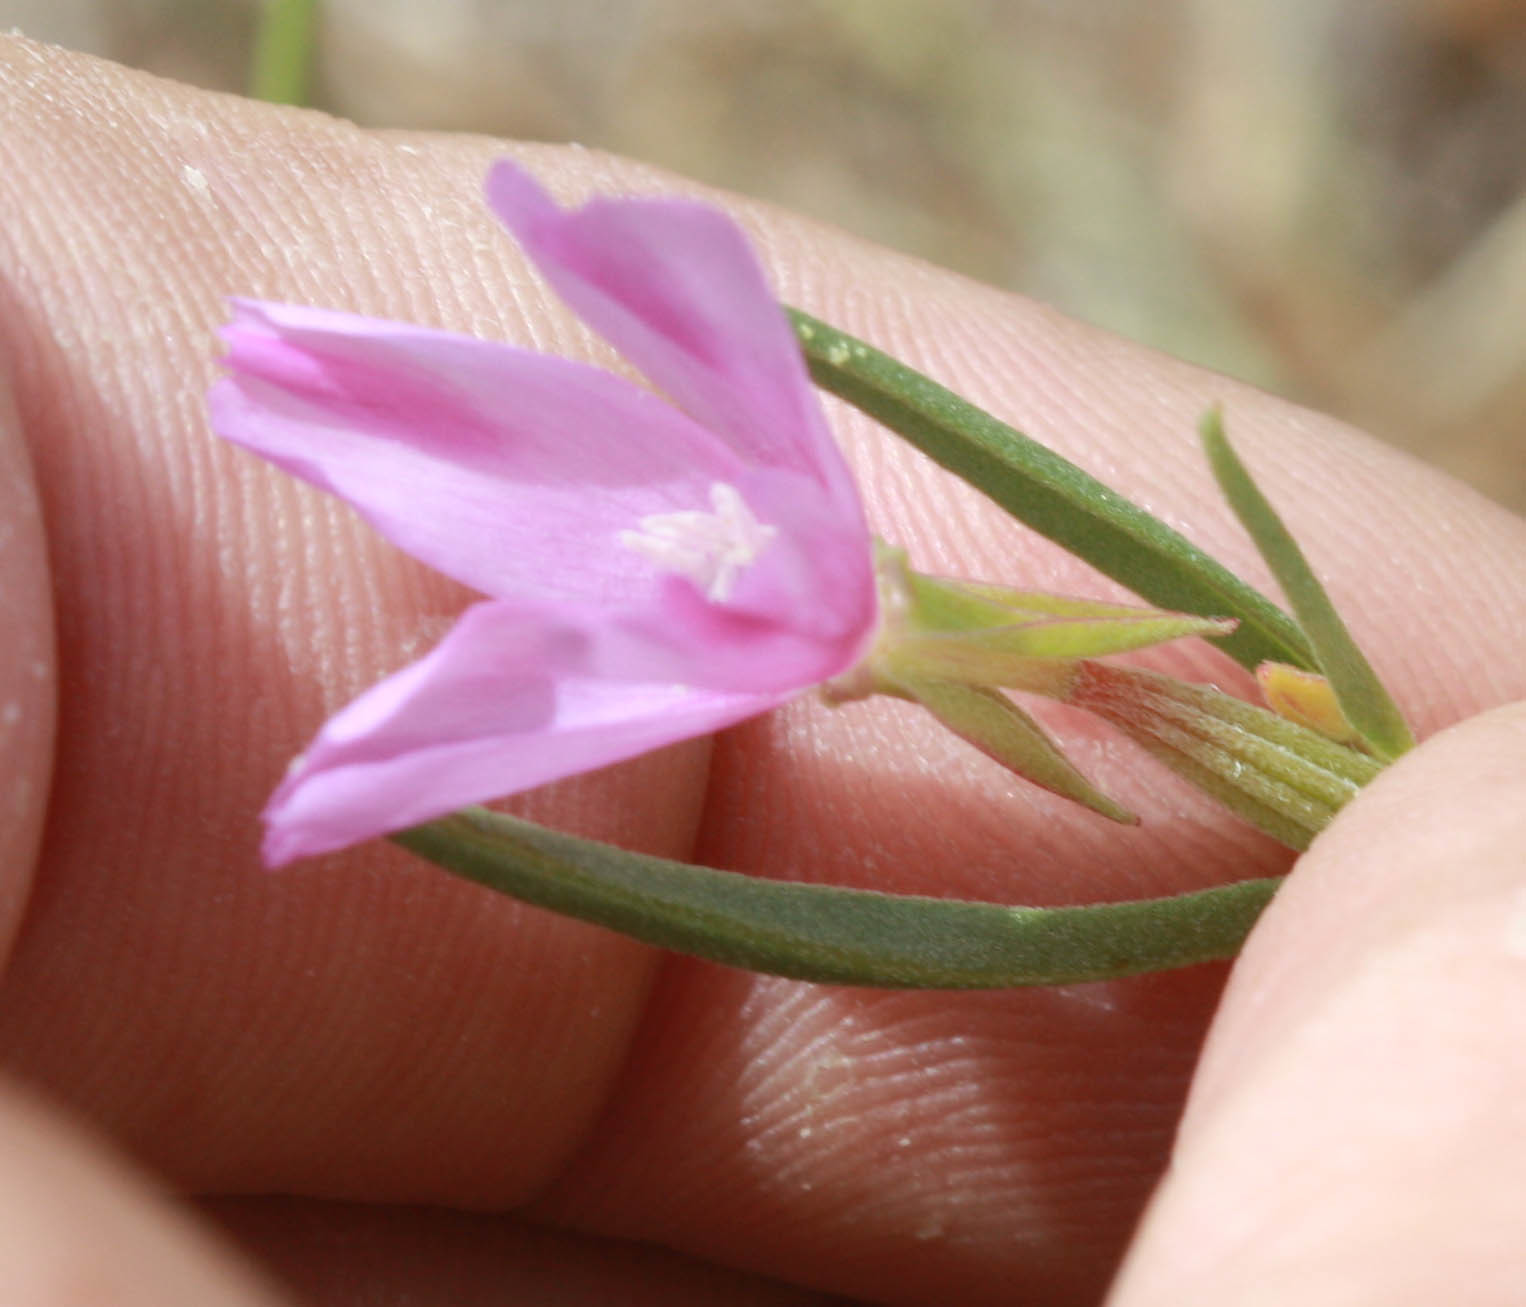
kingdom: Plantae
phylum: Tracheophyta
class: Magnoliopsida
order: Myrtales
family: Onagraceae
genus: Clarkia
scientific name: Clarkia purpurea
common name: Purple clarkia
